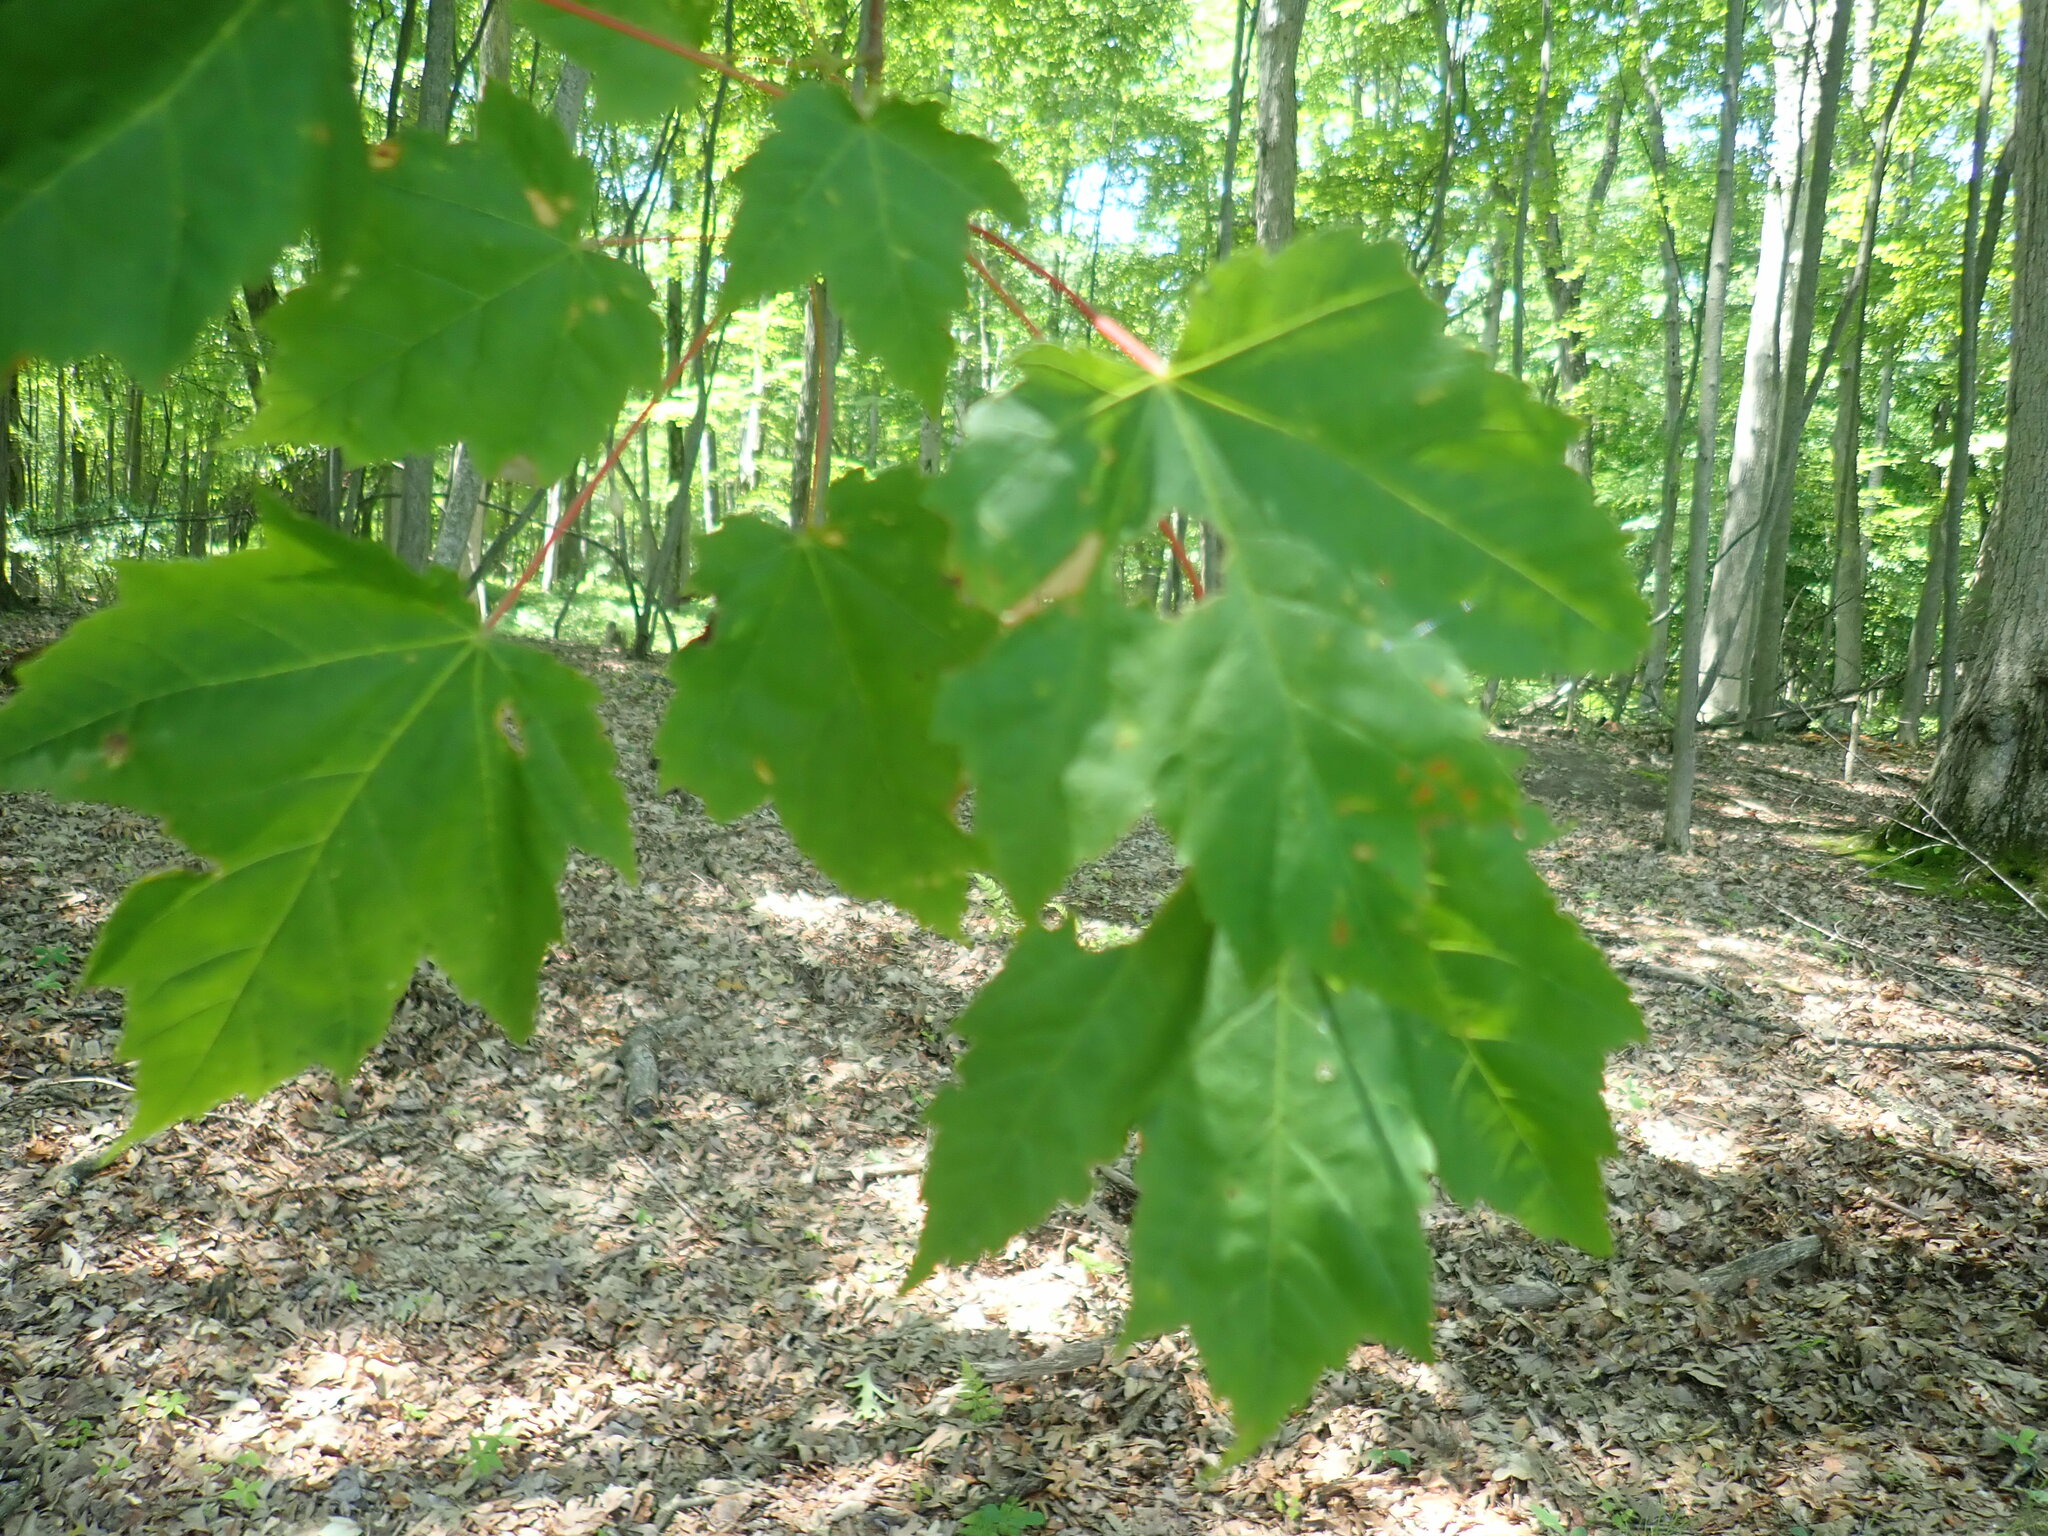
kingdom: Plantae
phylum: Tracheophyta
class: Magnoliopsida
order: Sapindales
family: Sapindaceae
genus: Acer
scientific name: Acer rubrum
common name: Red maple
